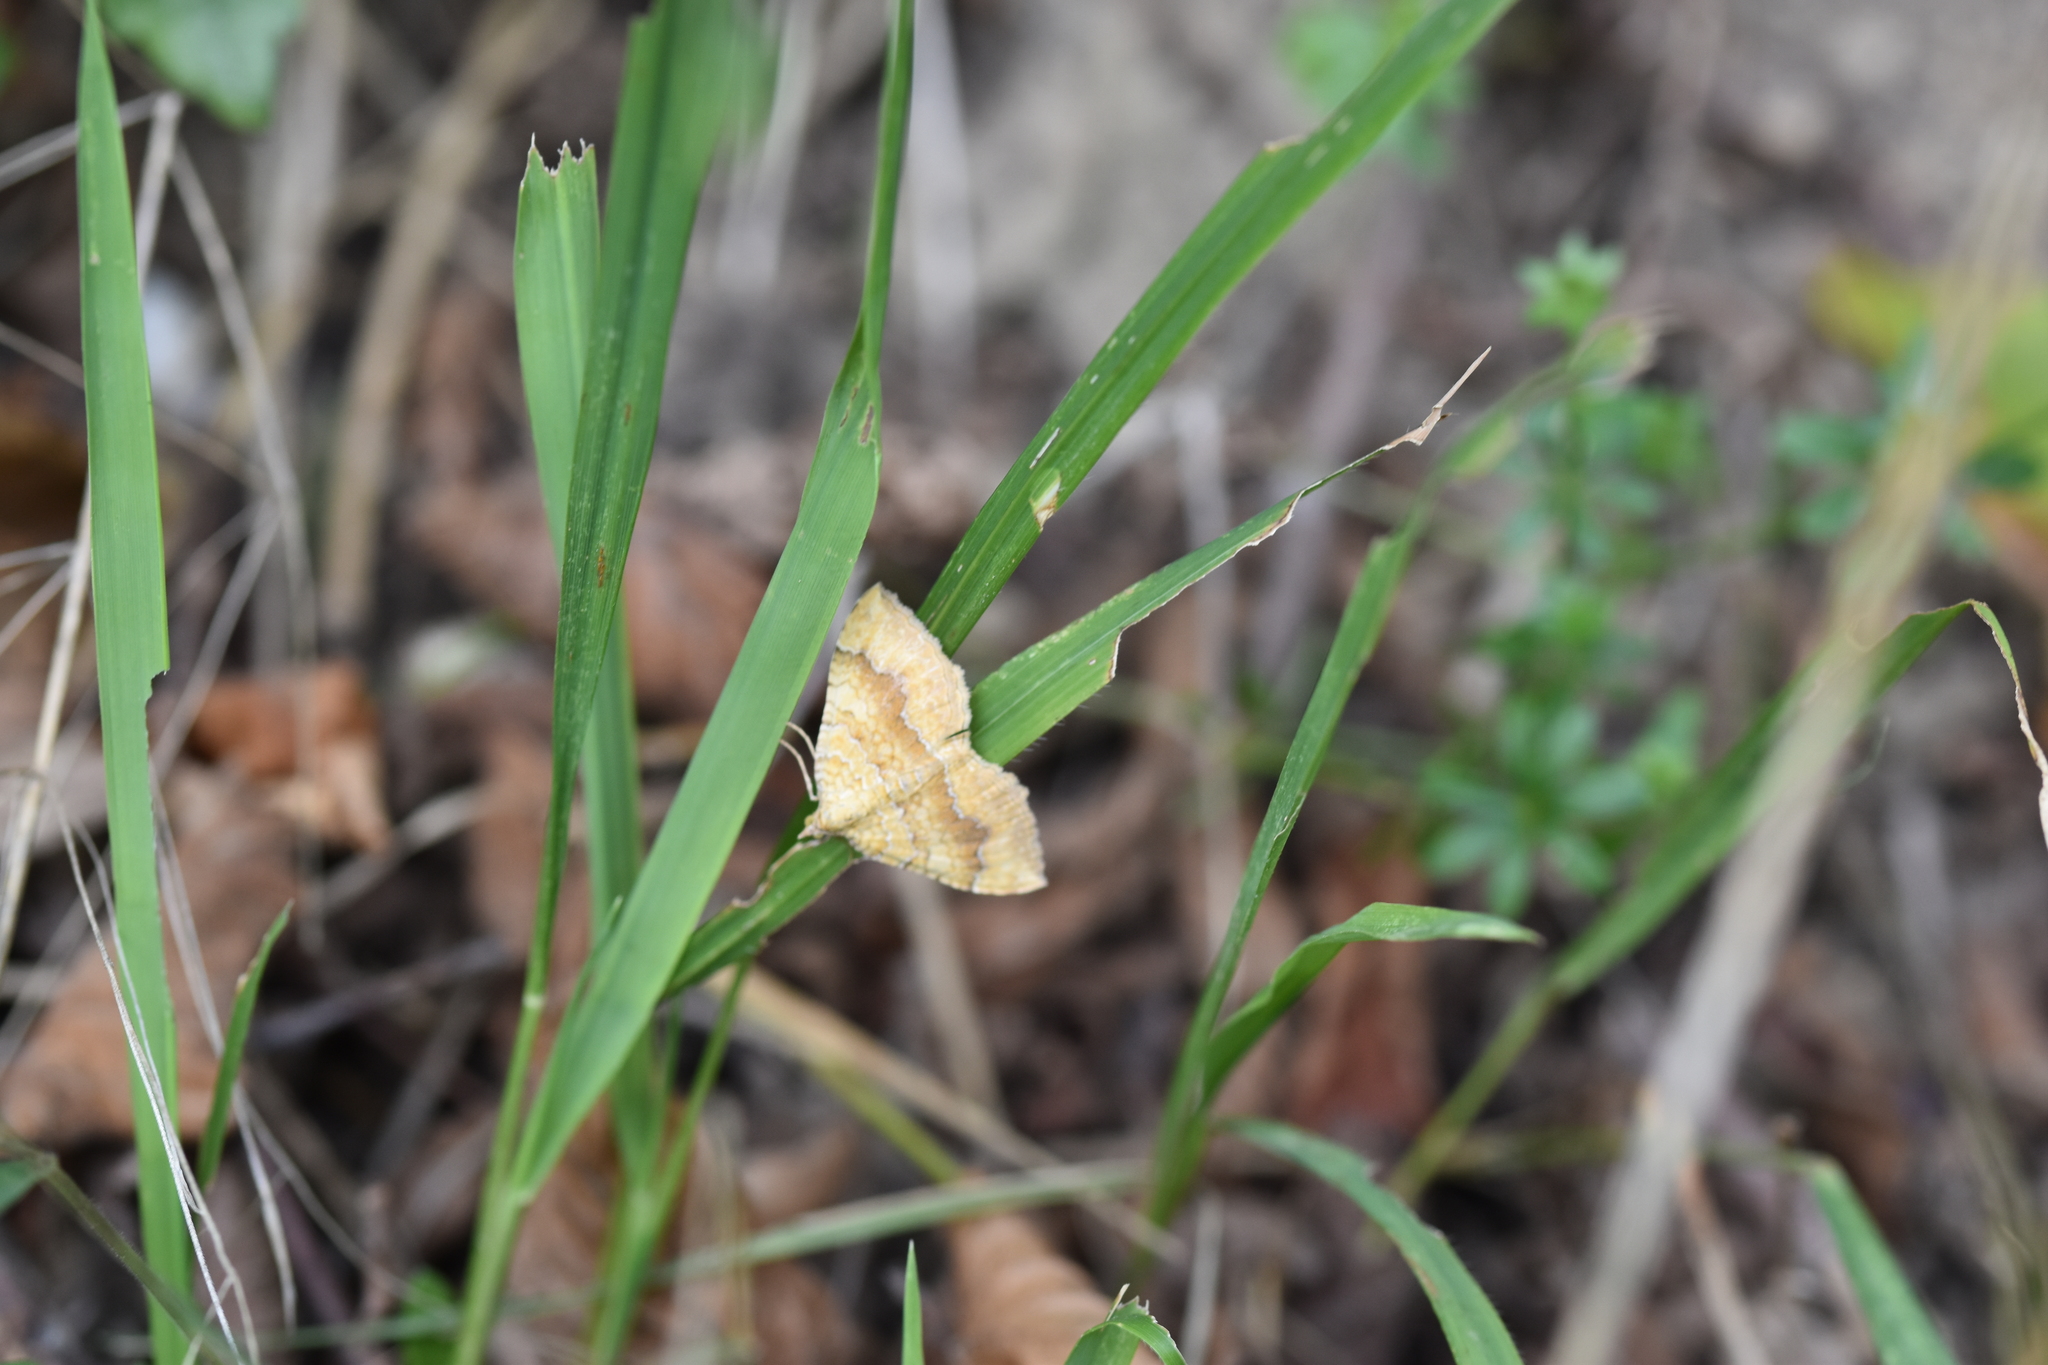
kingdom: Animalia
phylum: Arthropoda
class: Insecta
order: Lepidoptera
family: Geometridae
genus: Camptogramma
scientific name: Camptogramma bilineata
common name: Yellow shell
